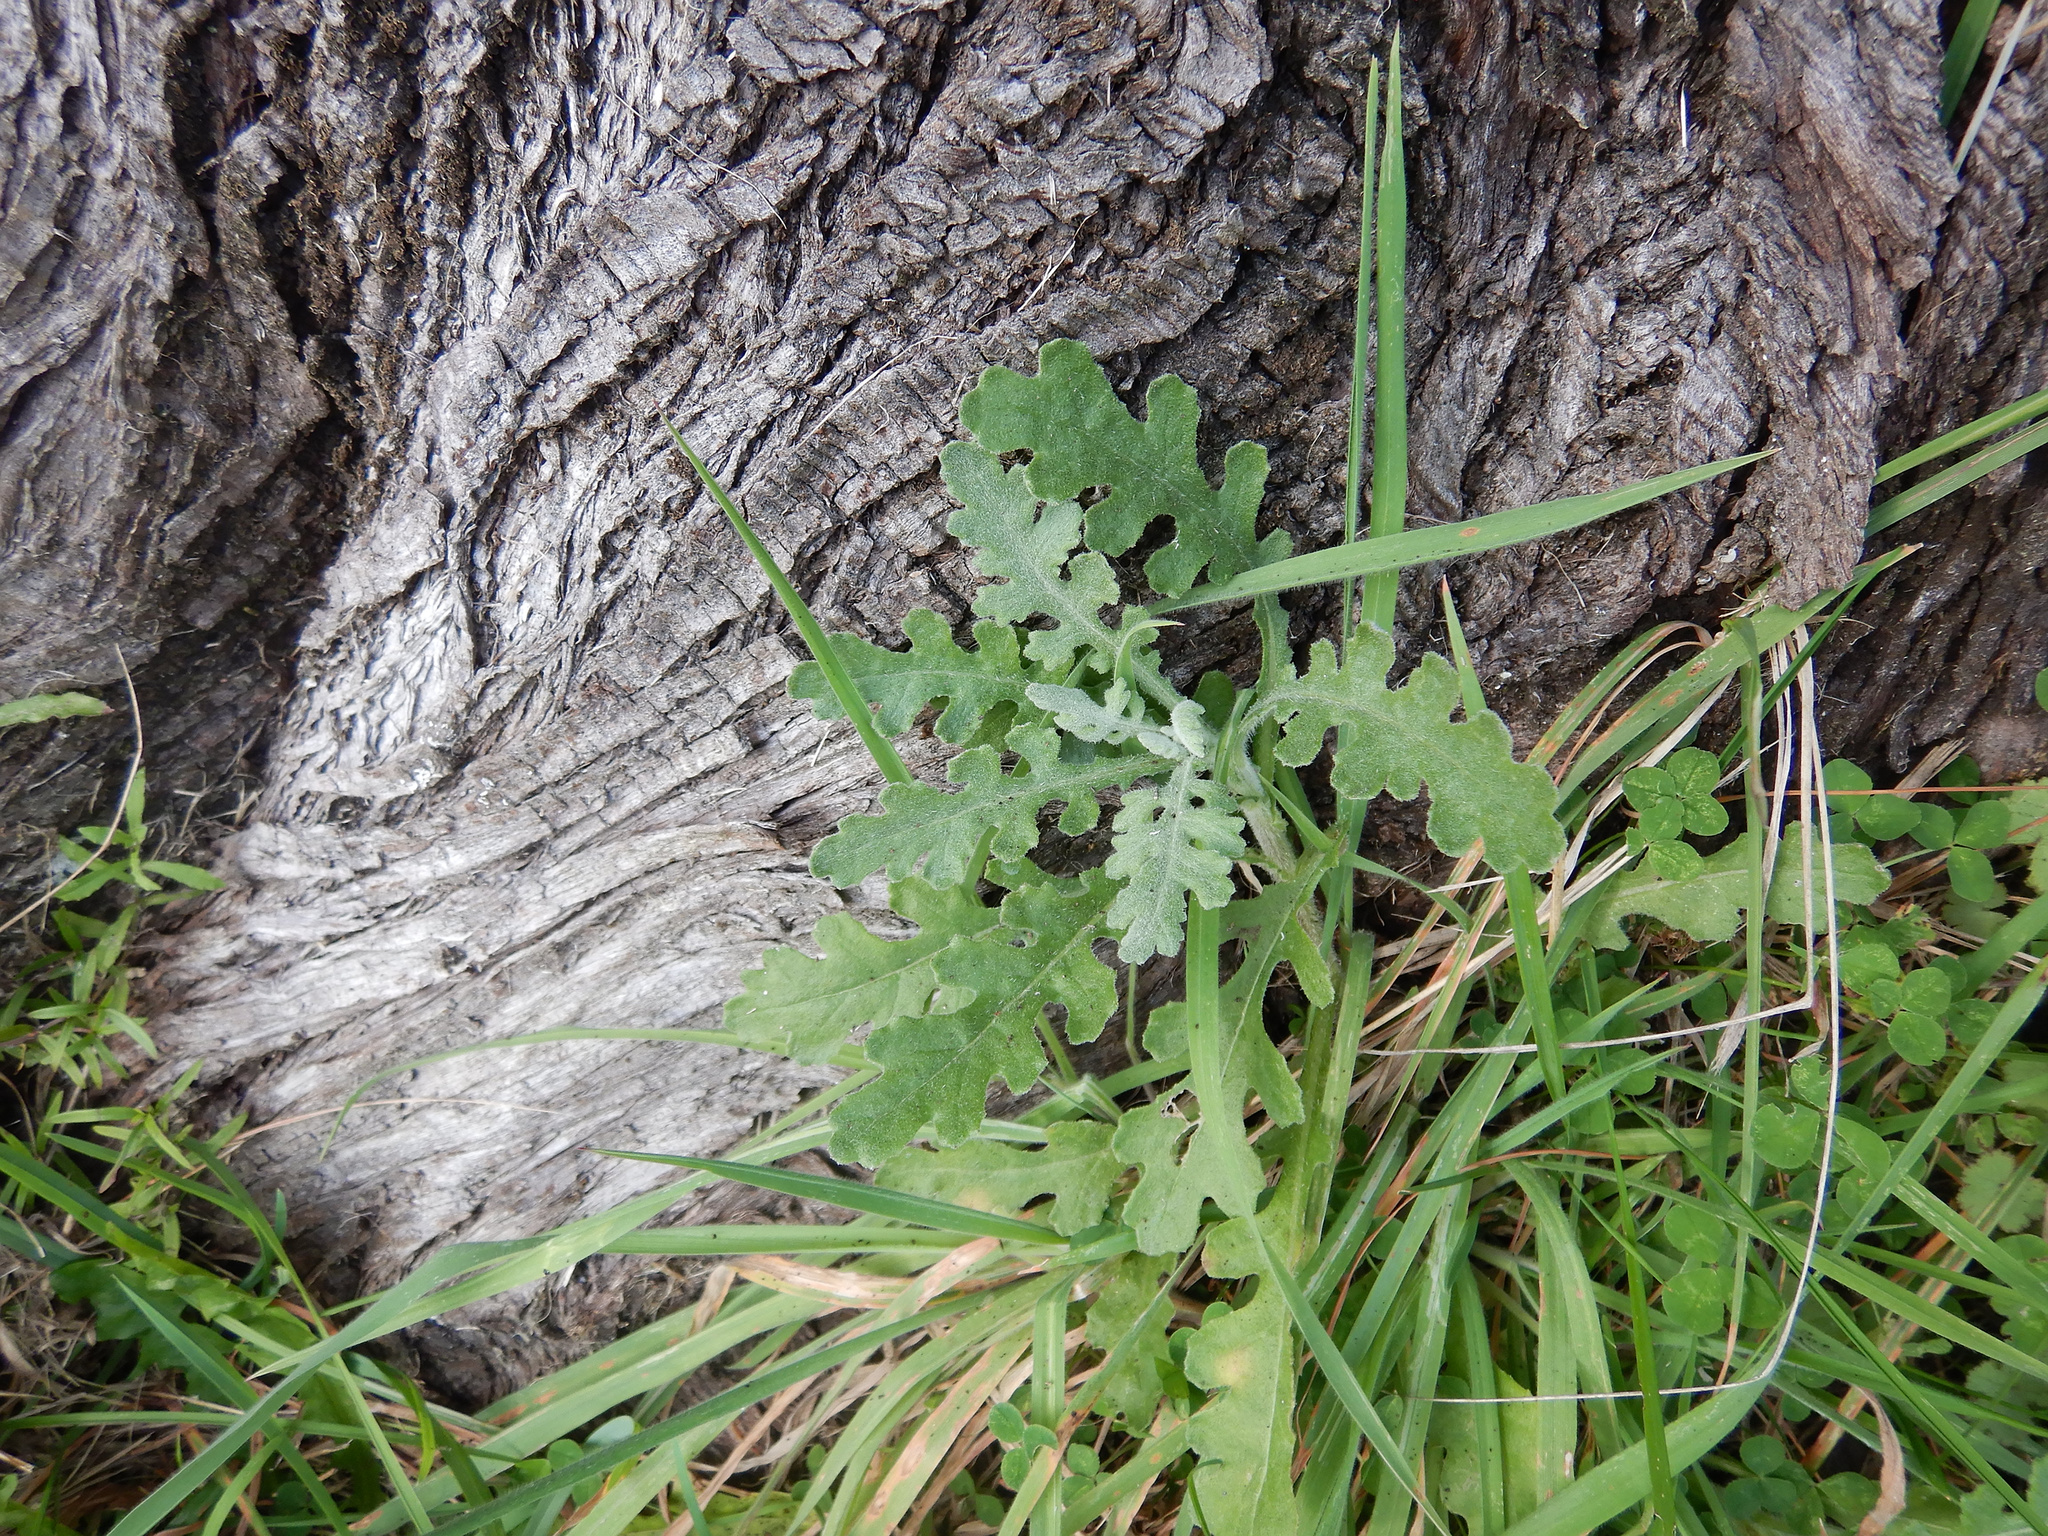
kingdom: Plantae
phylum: Tracheophyta
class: Magnoliopsida
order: Asterales
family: Asteraceae
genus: Senecio
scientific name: Senecio glomeratus
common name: Cutleaf burnweed
